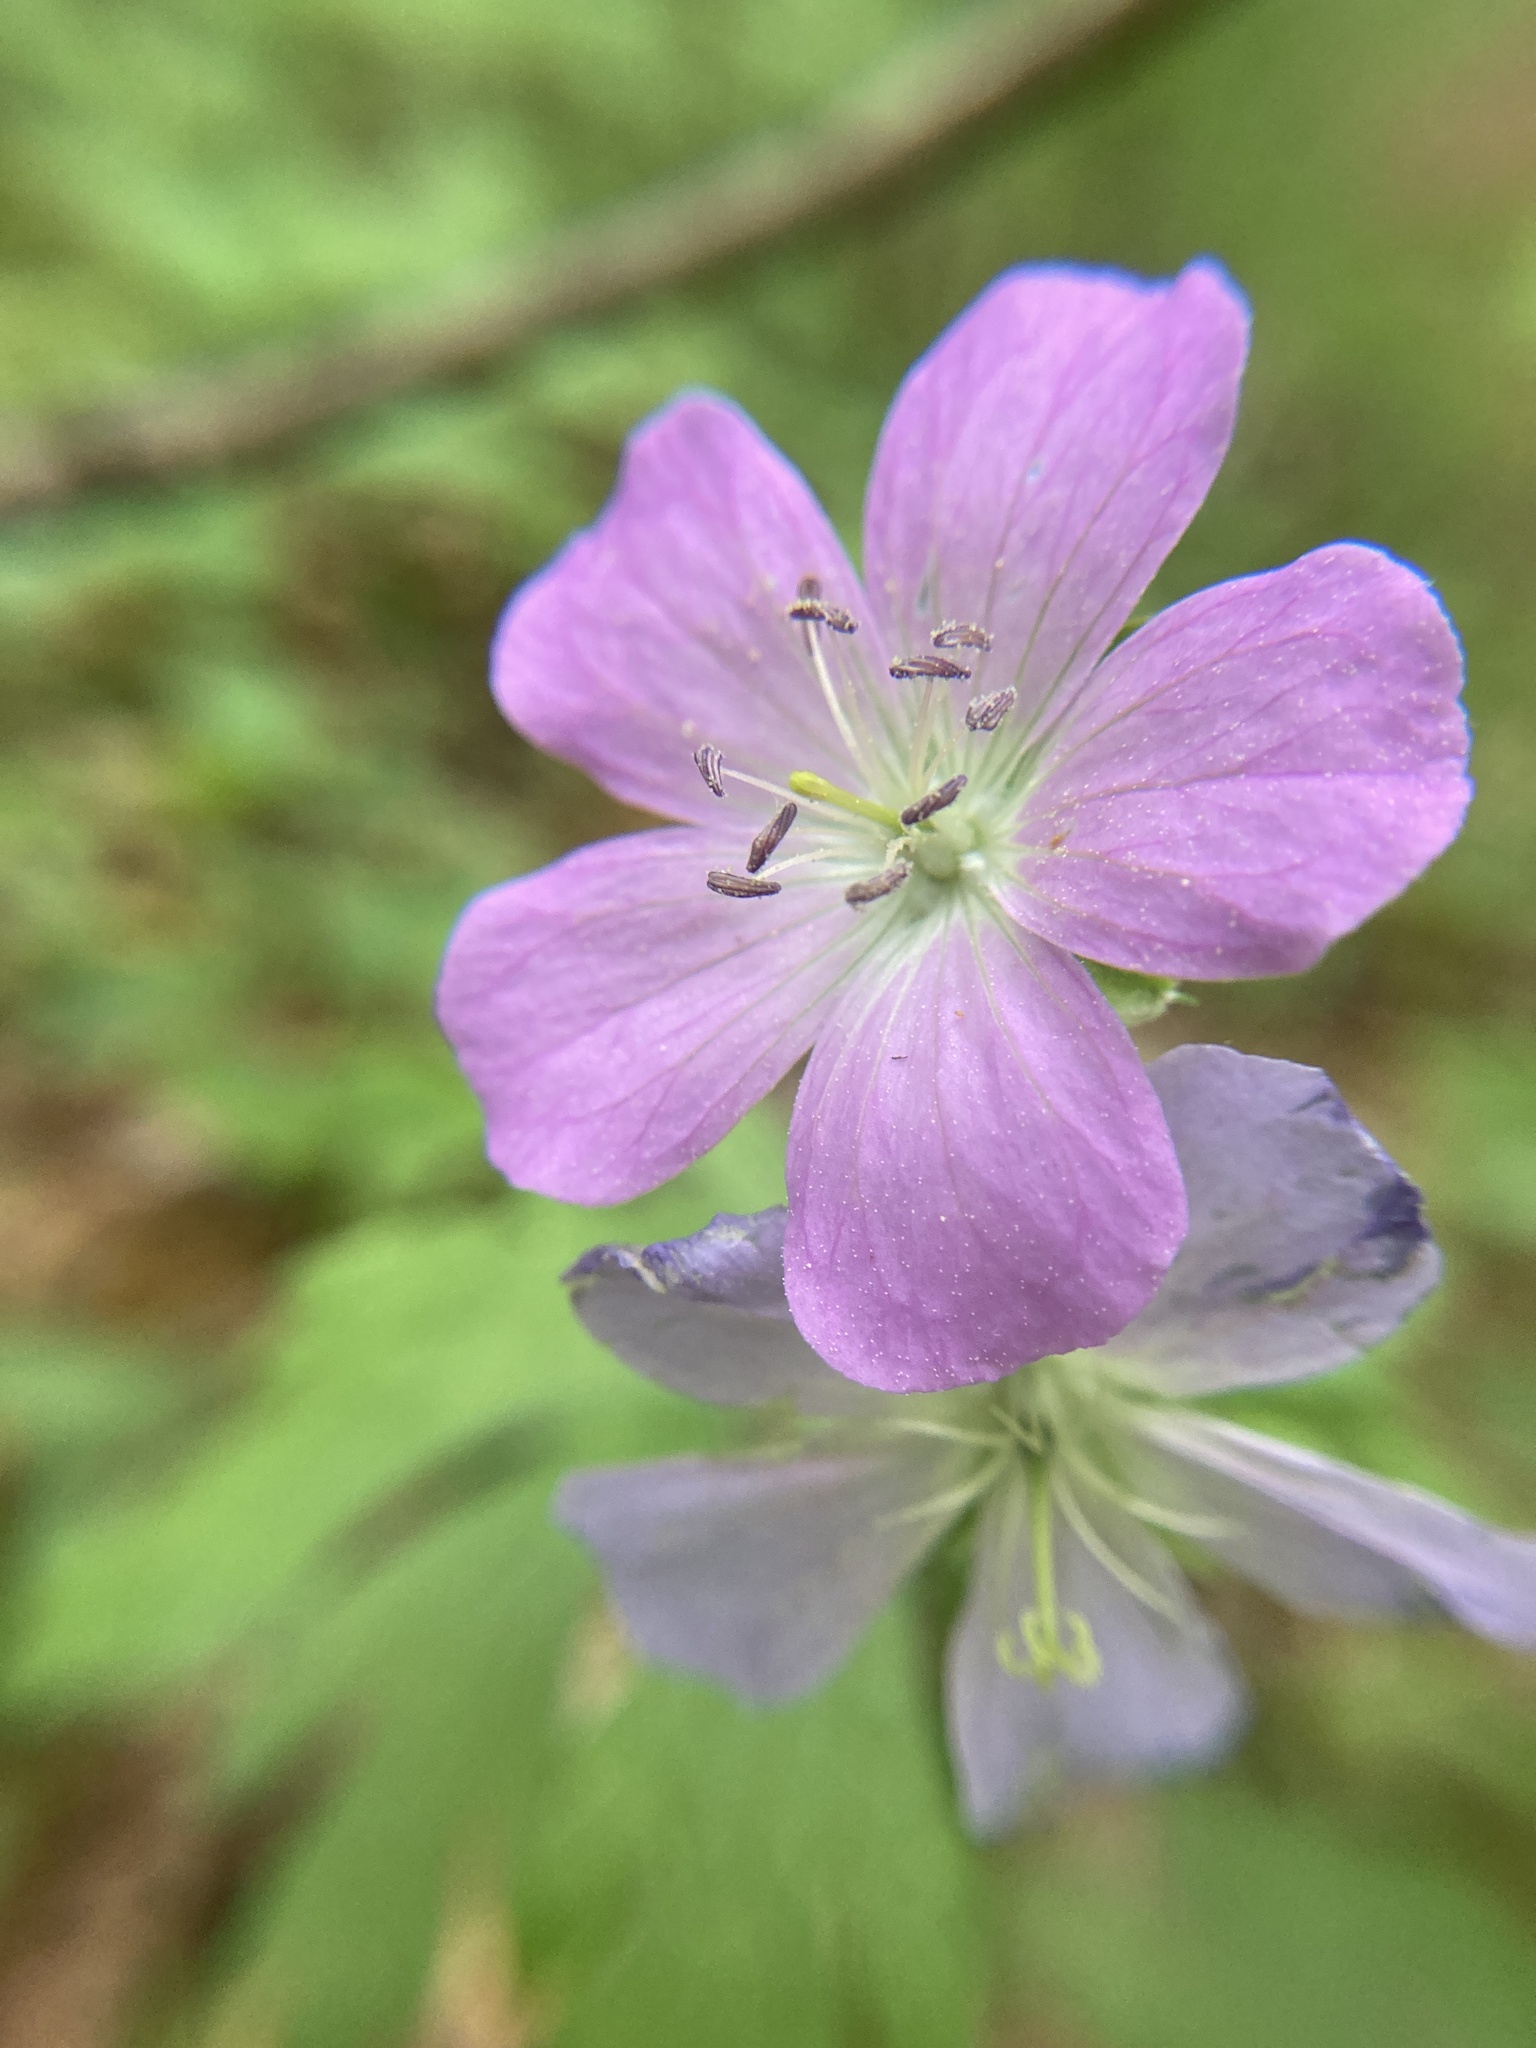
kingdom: Plantae
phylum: Tracheophyta
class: Magnoliopsida
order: Geraniales
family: Geraniaceae
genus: Geranium
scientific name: Geranium maculatum
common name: Spotted geranium
